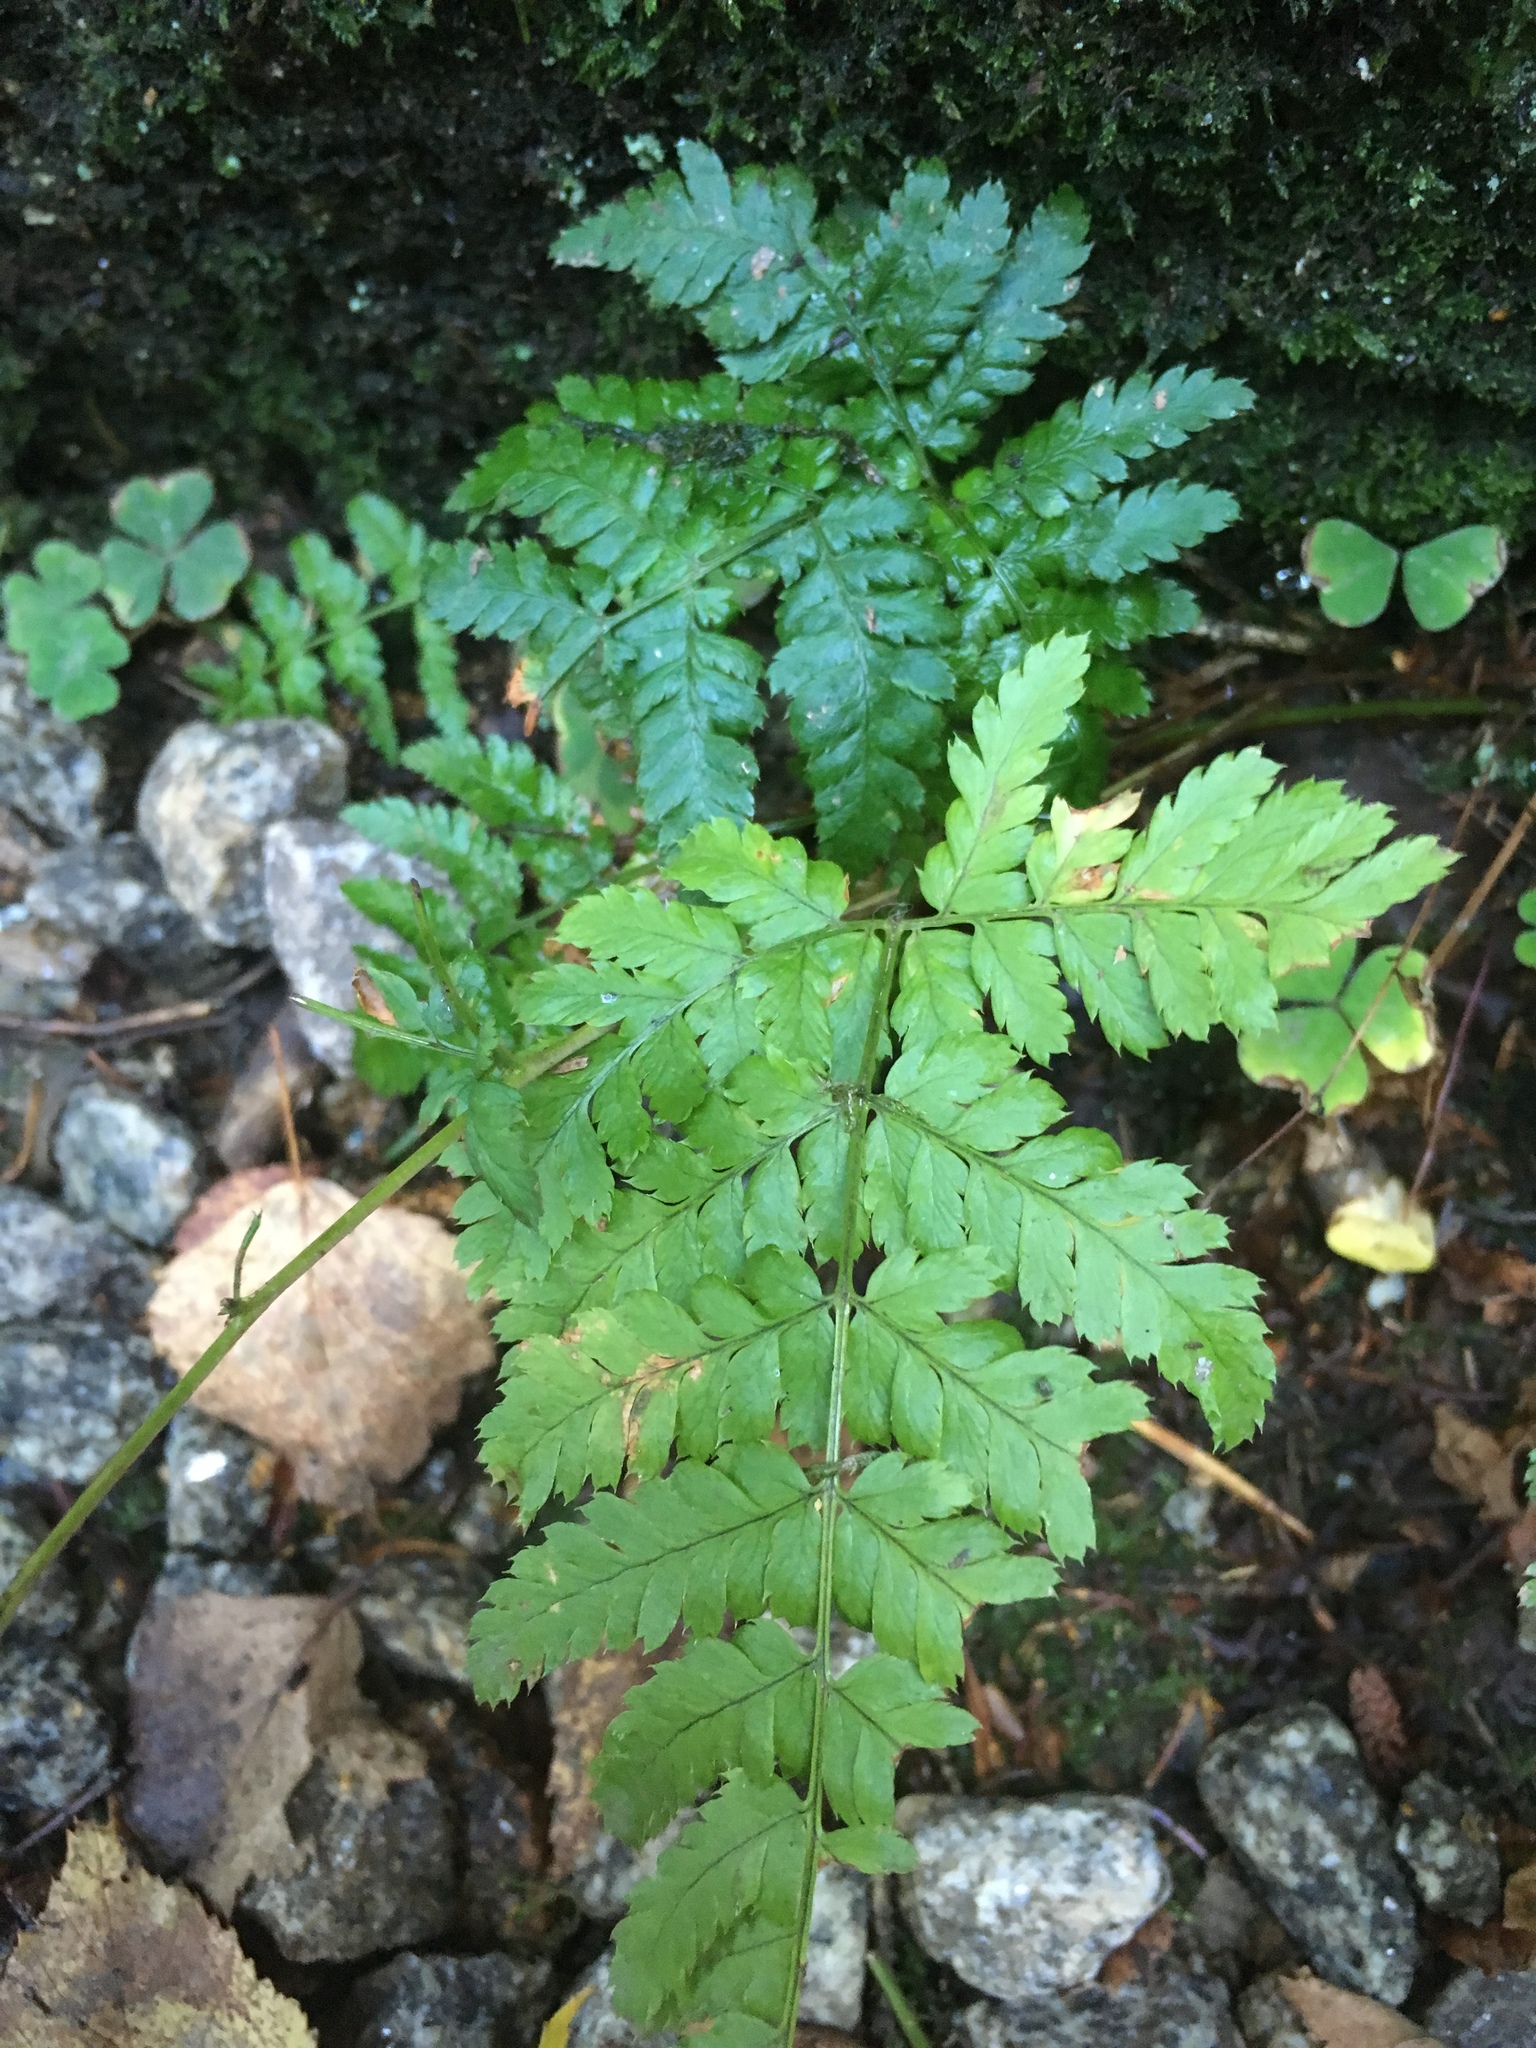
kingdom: Plantae
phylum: Tracheophyta
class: Polypodiopsida
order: Polypodiales
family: Dryopteridaceae
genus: Dryopteris
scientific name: Dryopteris carthusiana
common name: Narrow buckler-fern
